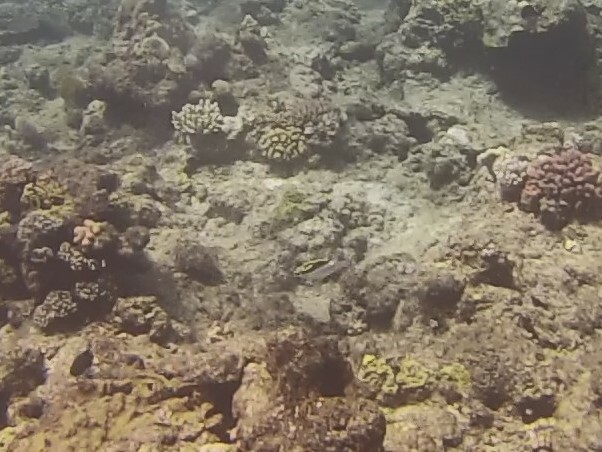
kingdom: Animalia
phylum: Chordata
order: Perciformes
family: Nemipteridae
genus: Scolopsis
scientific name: Scolopsis bilineata
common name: Two-lined monocle bream
